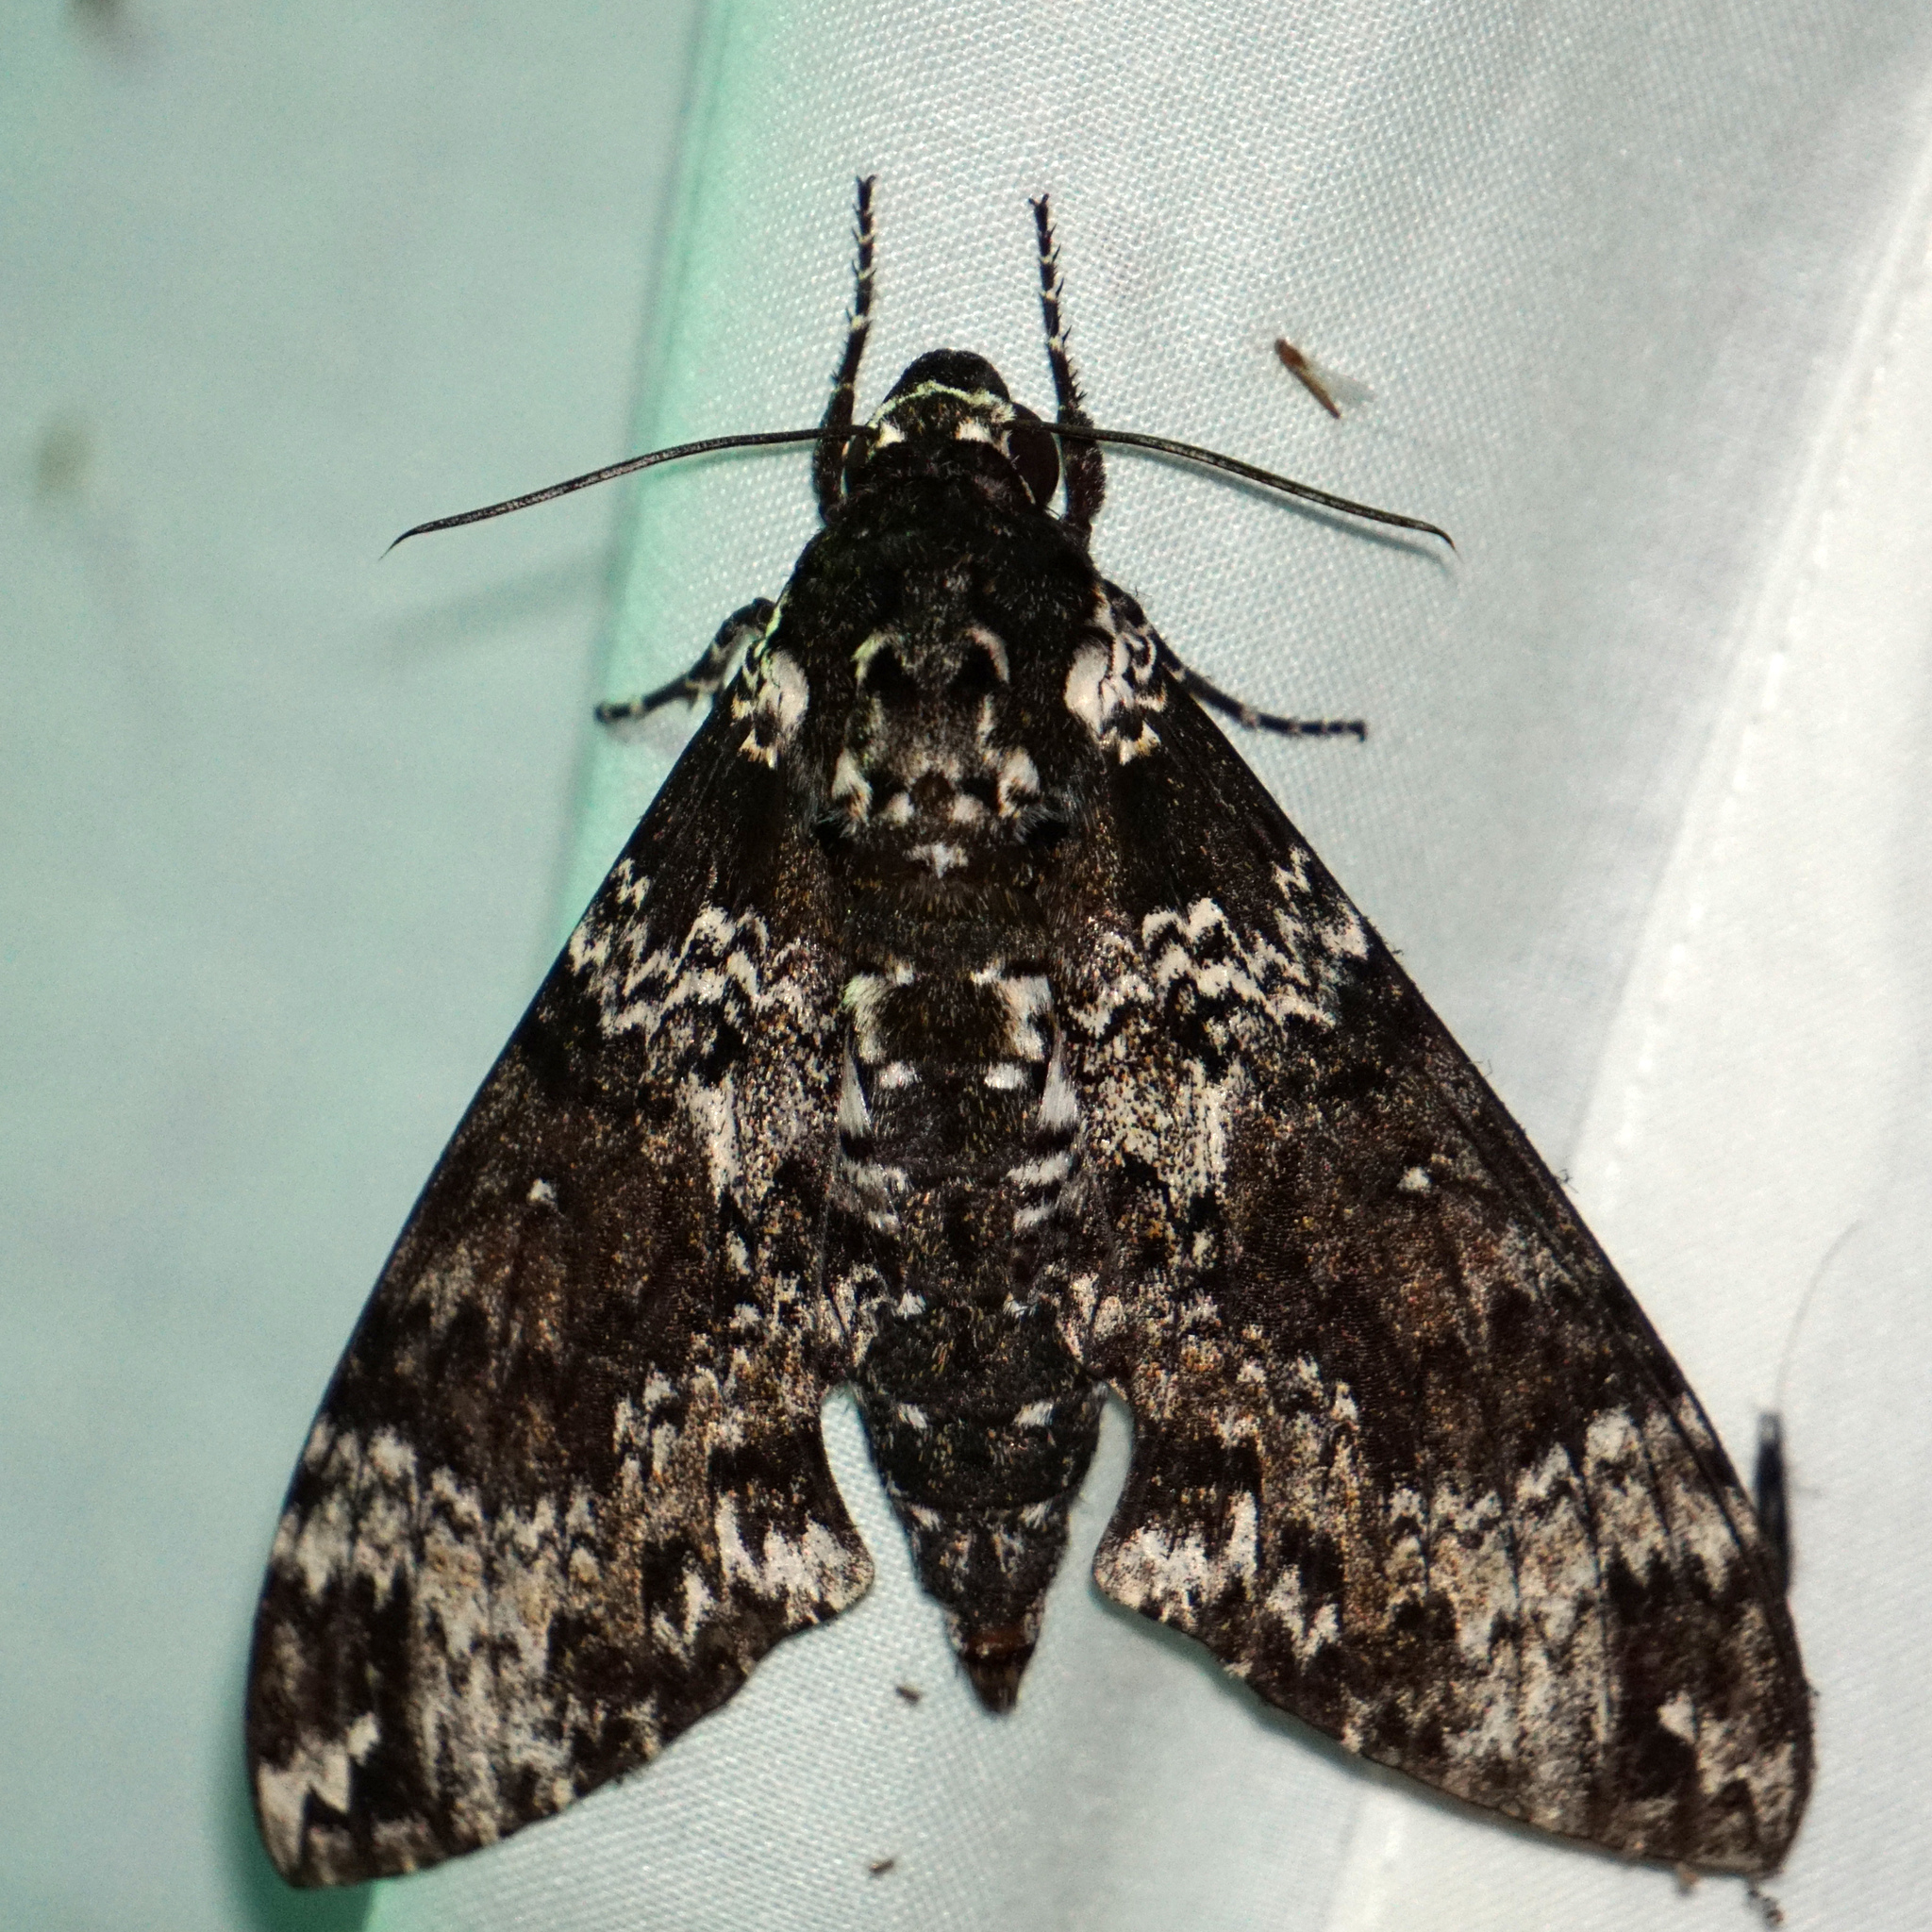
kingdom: Animalia
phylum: Arthropoda
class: Insecta
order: Lepidoptera
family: Sphingidae
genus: Manduca
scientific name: Manduca rustica
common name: Rustic sphinx
